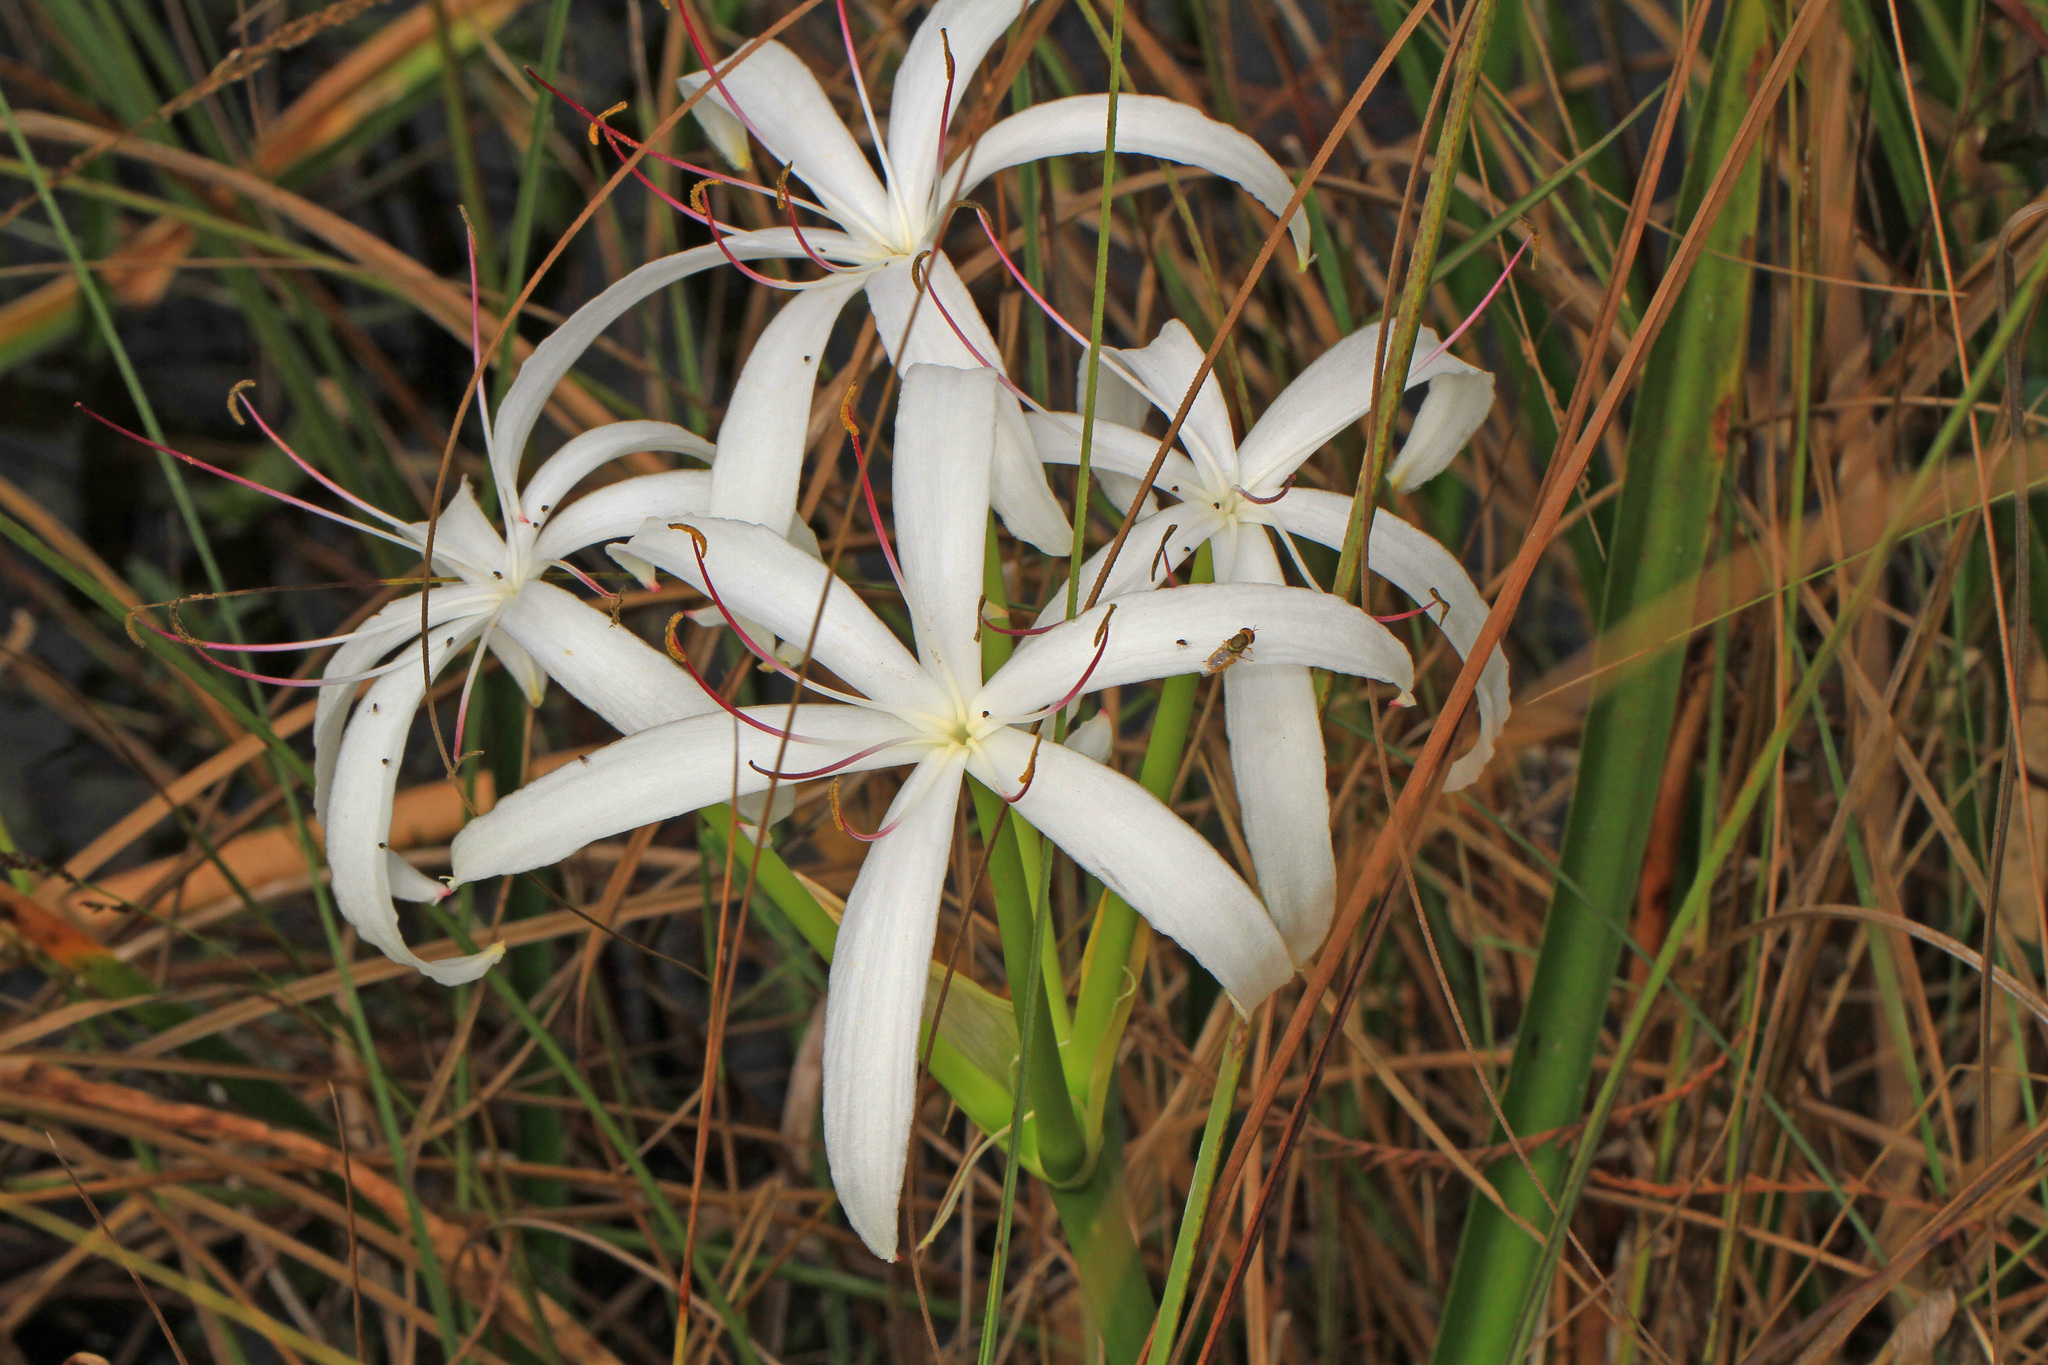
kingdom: Plantae
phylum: Tracheophyta
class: Liliopsida
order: Asparagales
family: Amaryllidaceae
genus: Crinum
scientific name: Crinum americanum
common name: Florida swamp-lily
